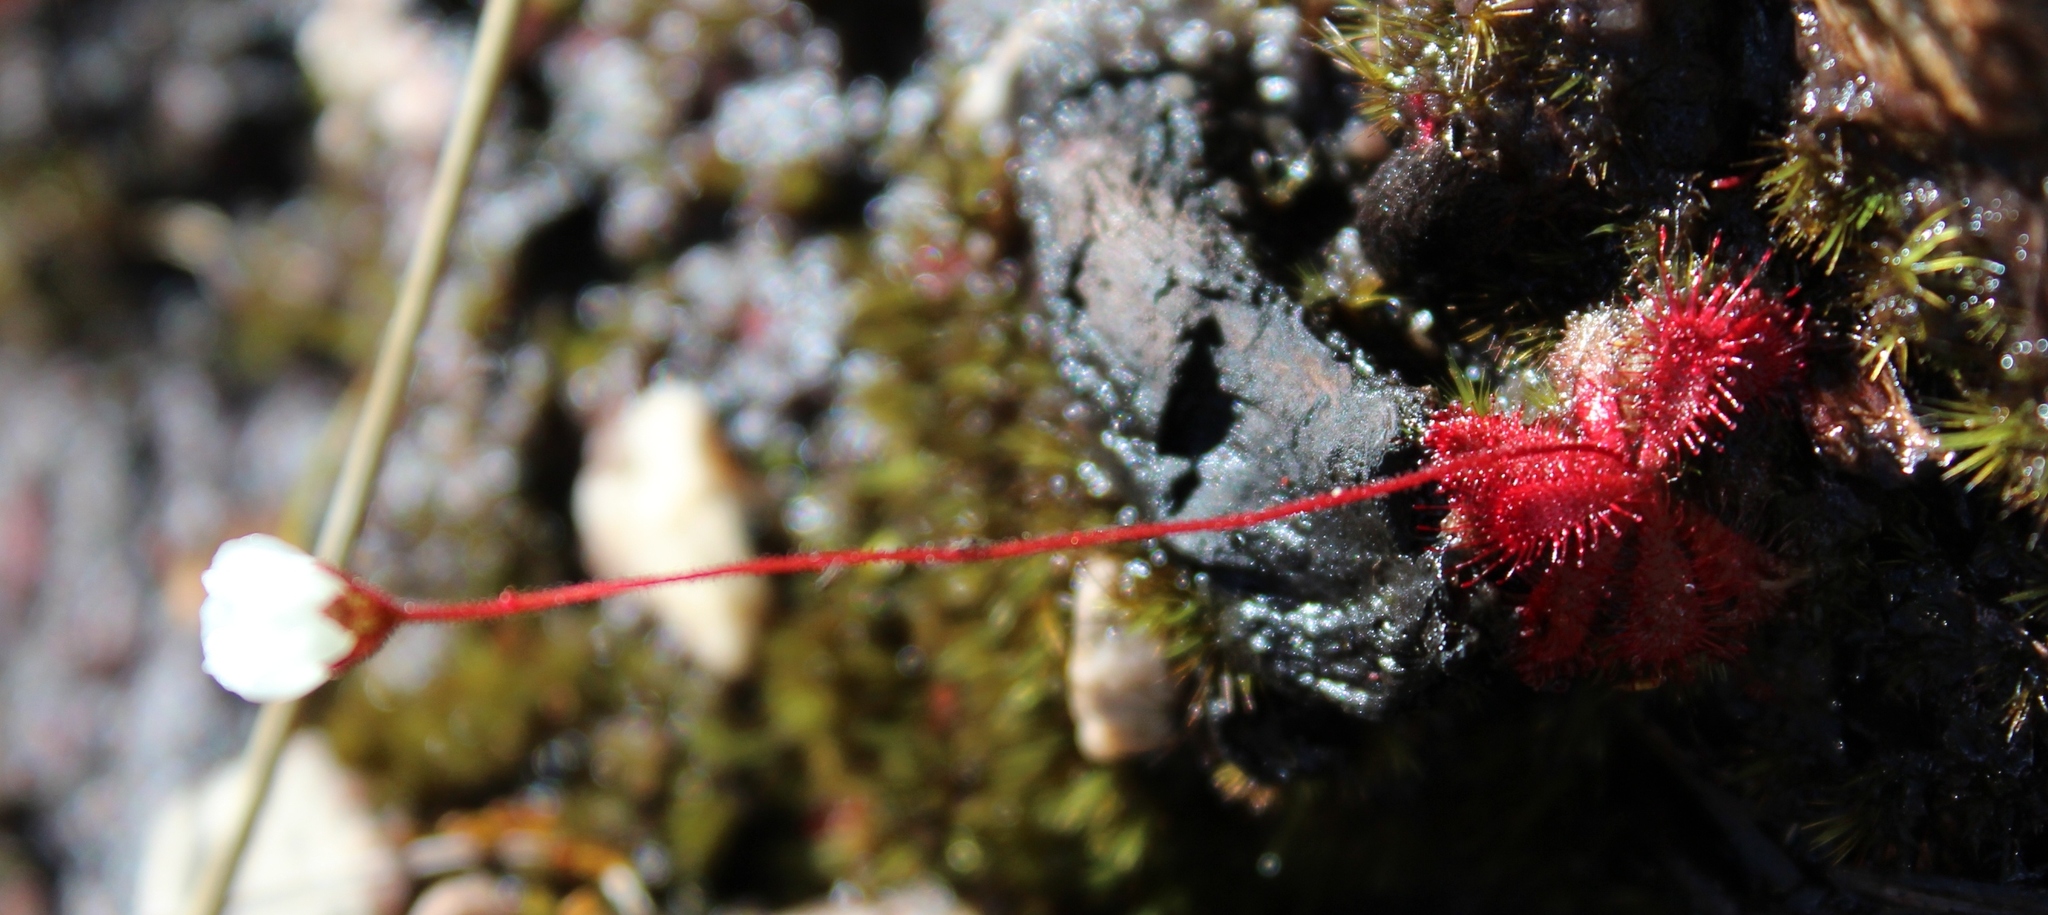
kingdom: Plantae
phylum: Tracheophyta
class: Magnoliopsida
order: Caryophyllales
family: Droseraceae
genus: Drosera
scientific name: Drosera trinervia
